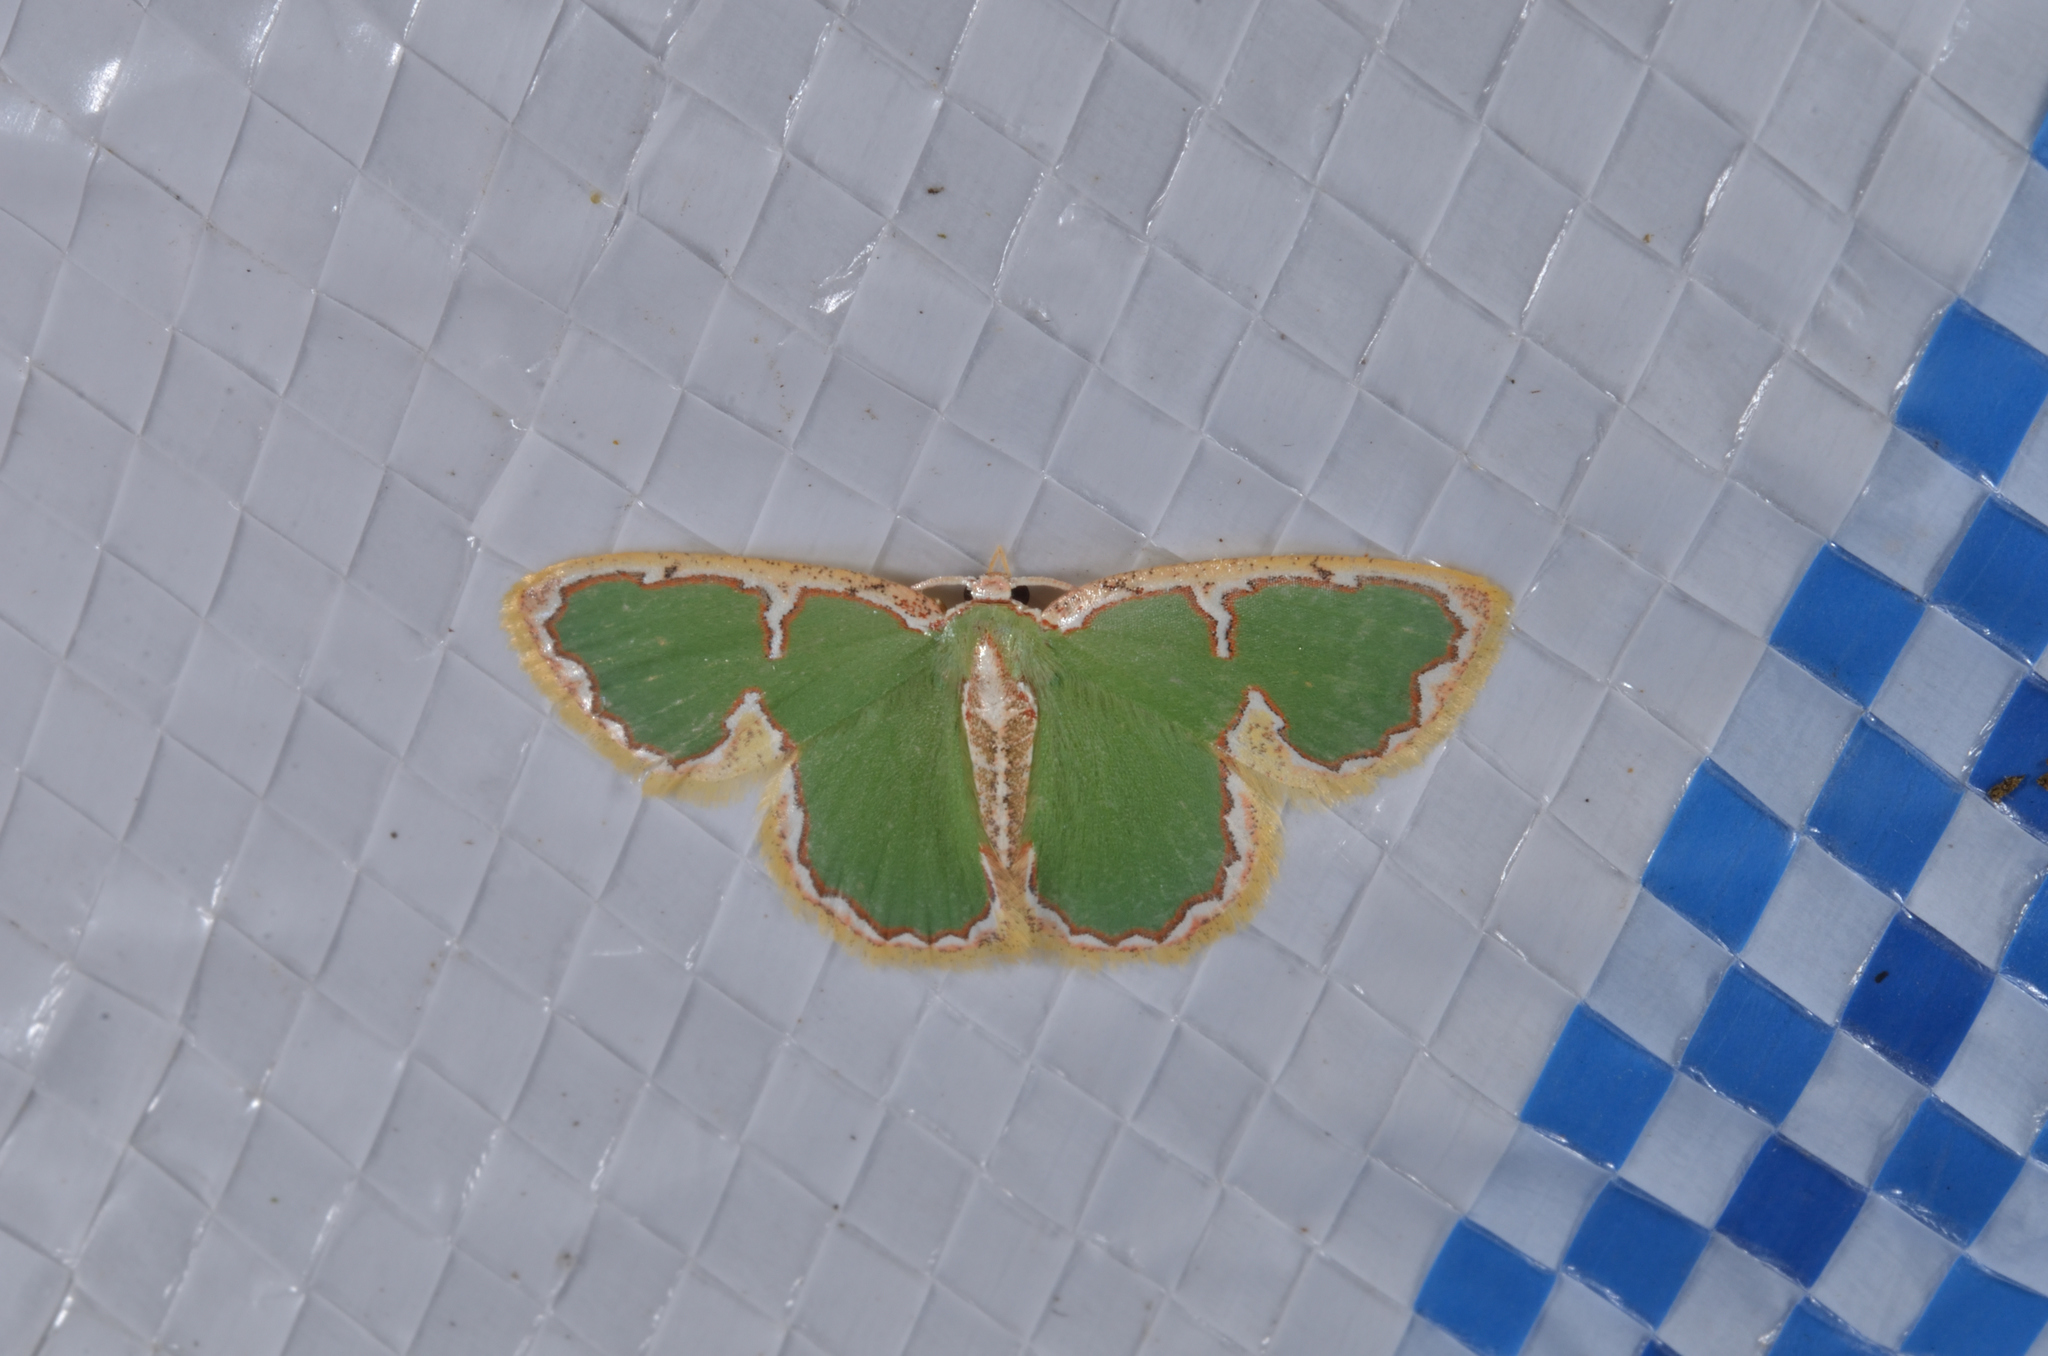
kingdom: Animalia
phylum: Arthropoda
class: Insecta
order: Lepidoptera
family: Geometridae
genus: Comostola
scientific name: Comostola chlorargyra
